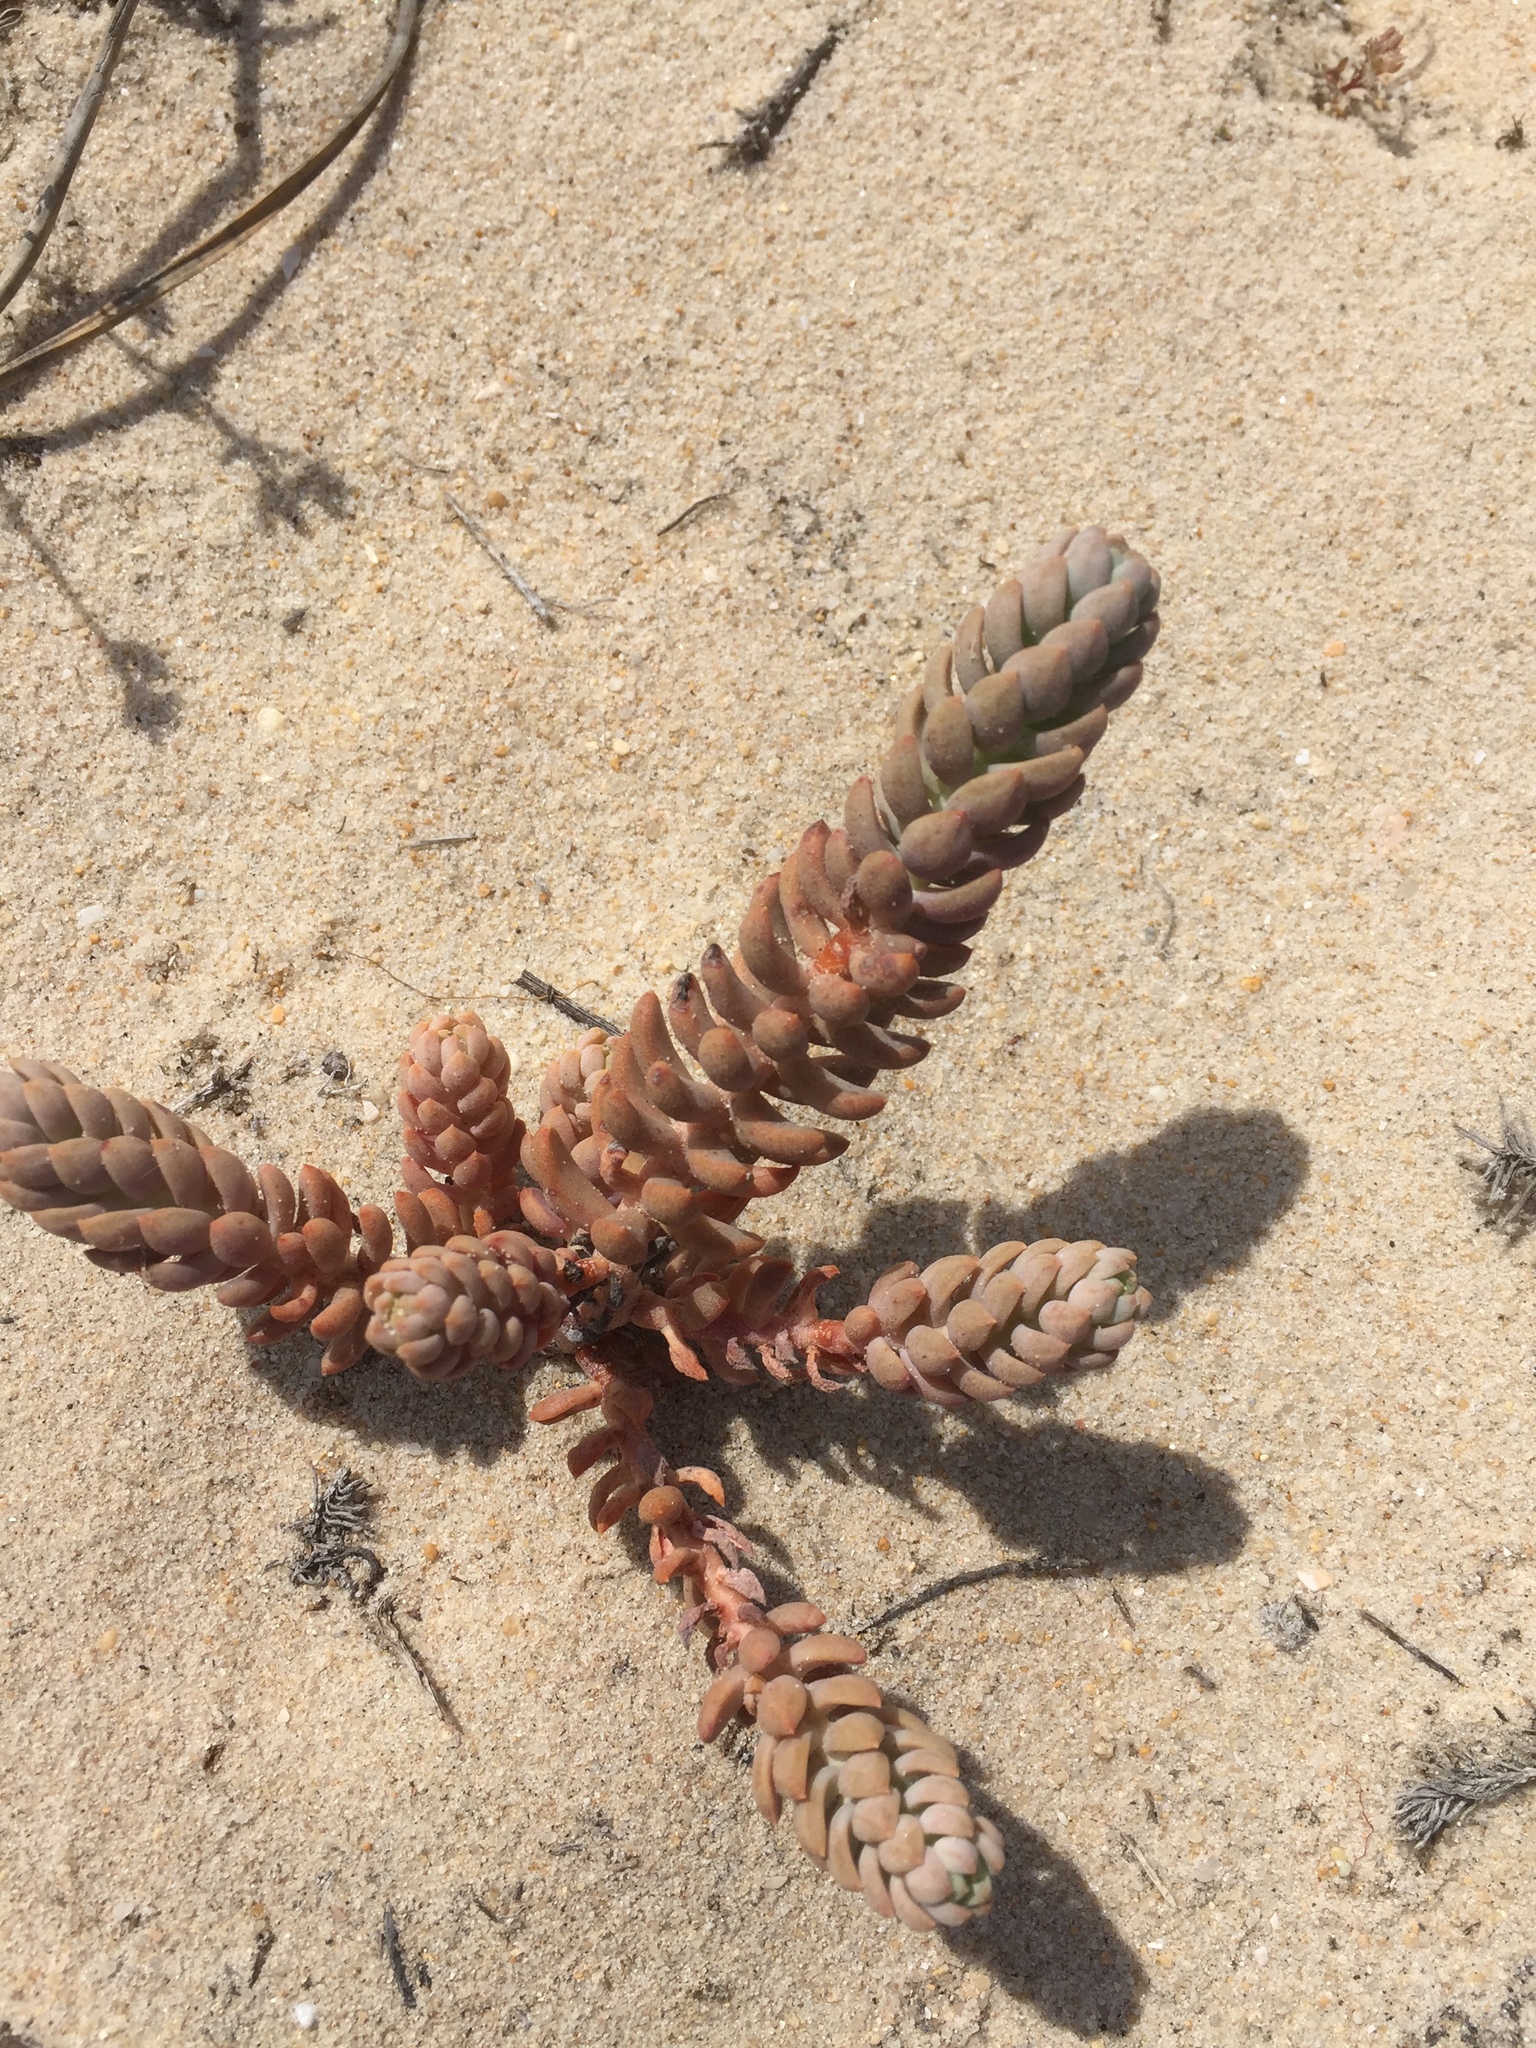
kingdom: Plantae
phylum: Tracheophyta
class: Magnoliopsida
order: Saxifragales
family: Crassulaceae
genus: Petrosedum
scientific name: Petrosedum sediforme
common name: Pale stonecrop
